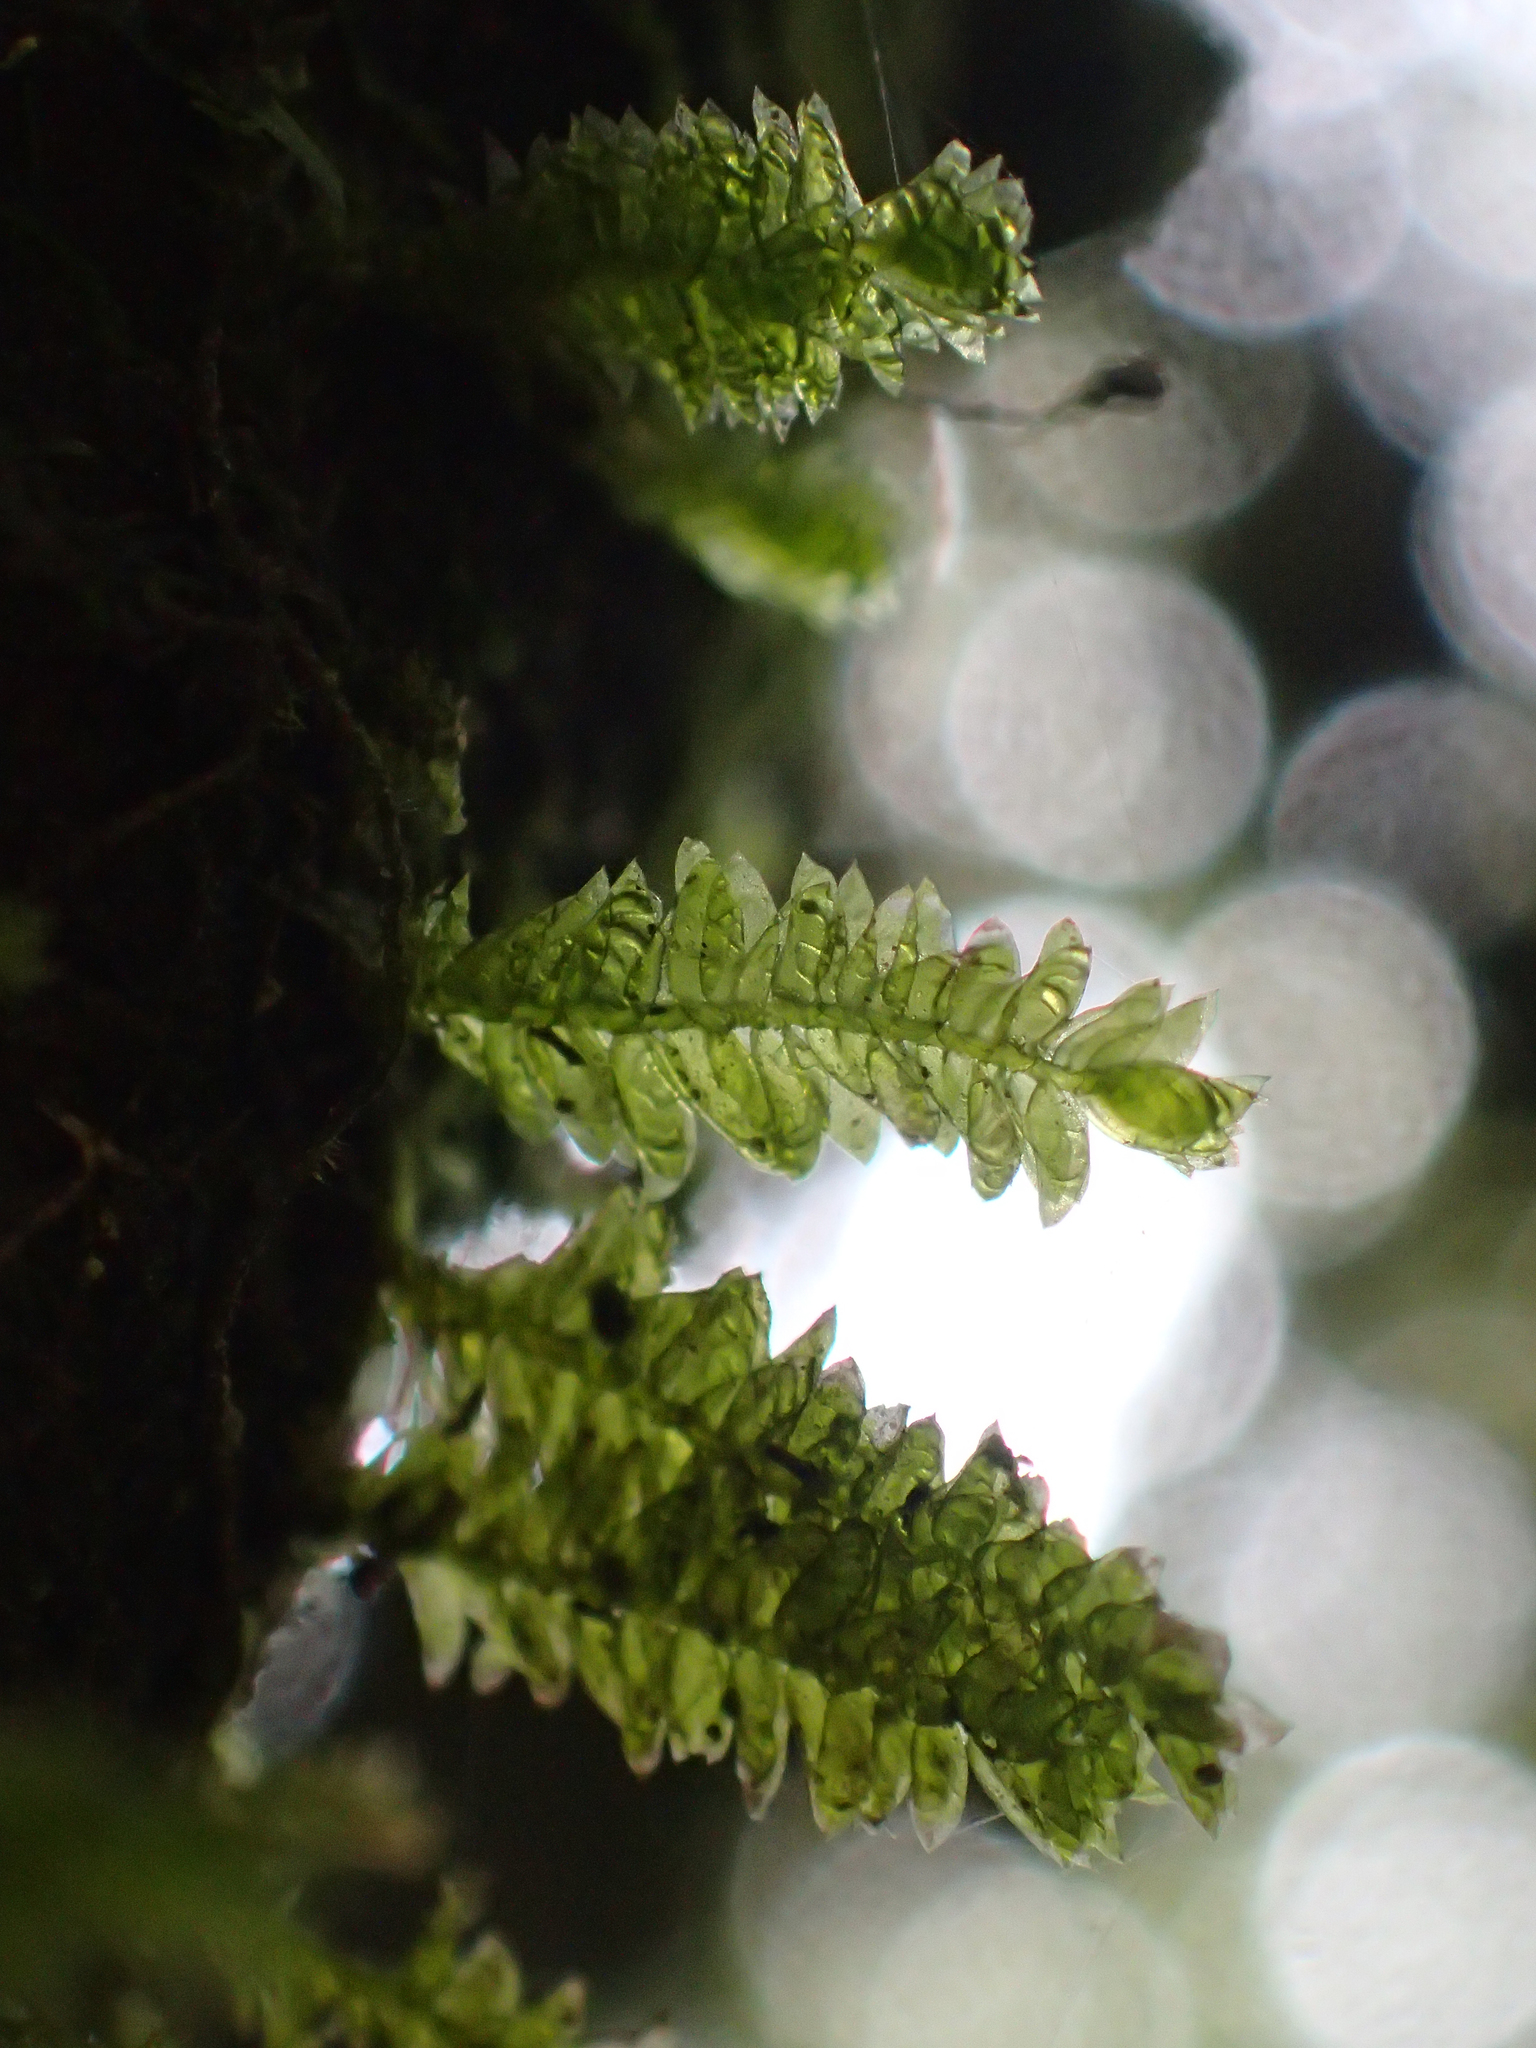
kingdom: Plantae
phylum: Bryophyta
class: Bryopsida
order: Hypopterygiales
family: Hypopterygiaceae
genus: Cyathophorum
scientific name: Cyathophorum bulbosum
